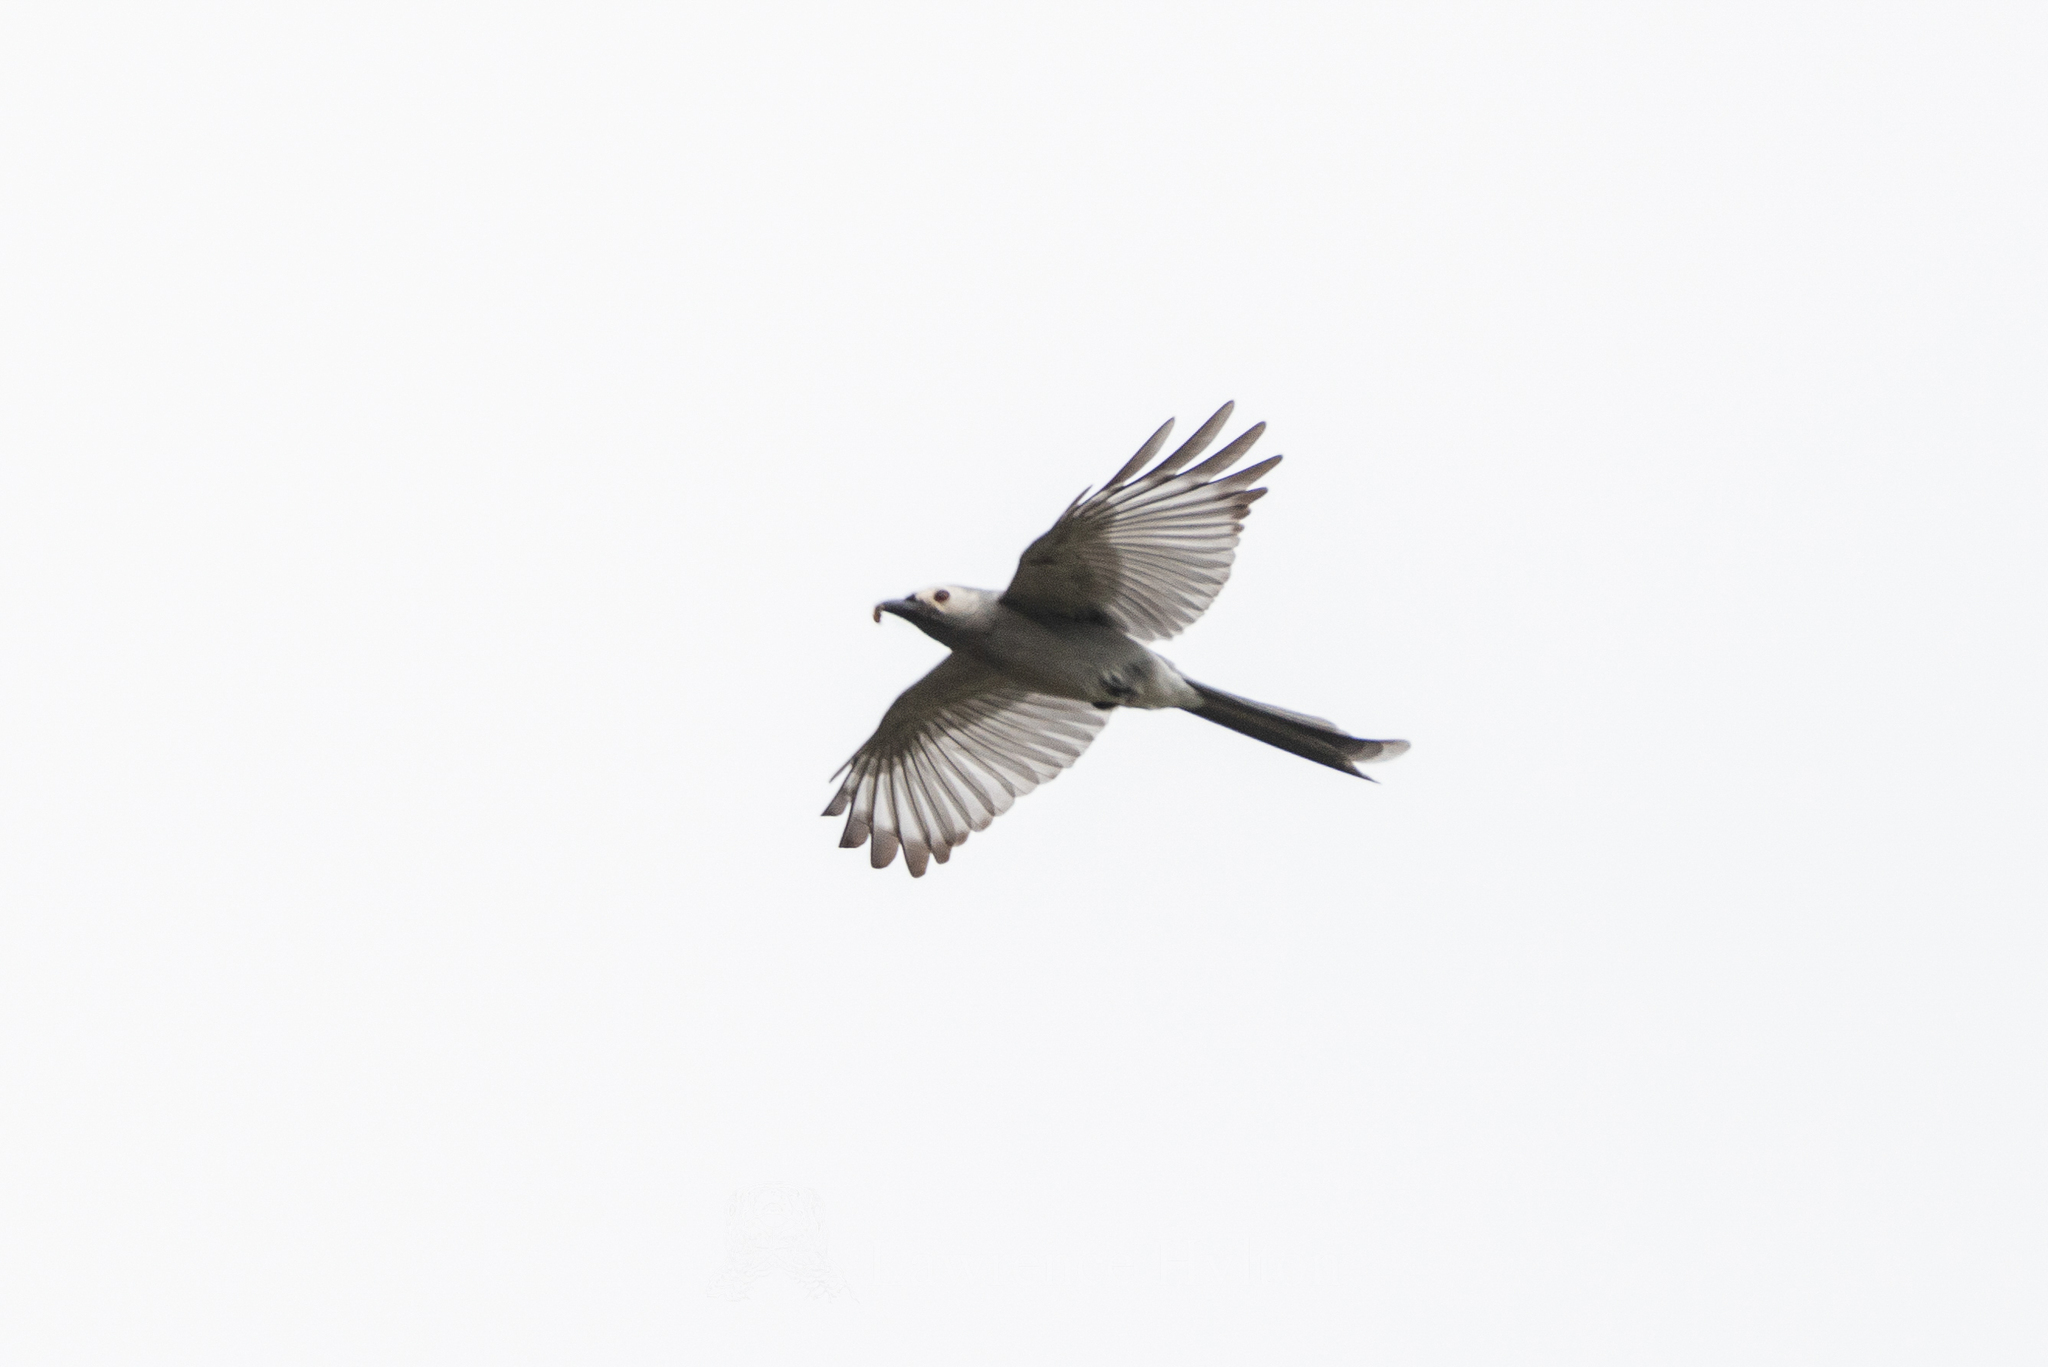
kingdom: Animalia
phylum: Chordata
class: Aves
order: Passeriformes
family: Dicruridae
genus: Dicrurus
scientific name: Dicrurus leucophaeus
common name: Ashy drongo
